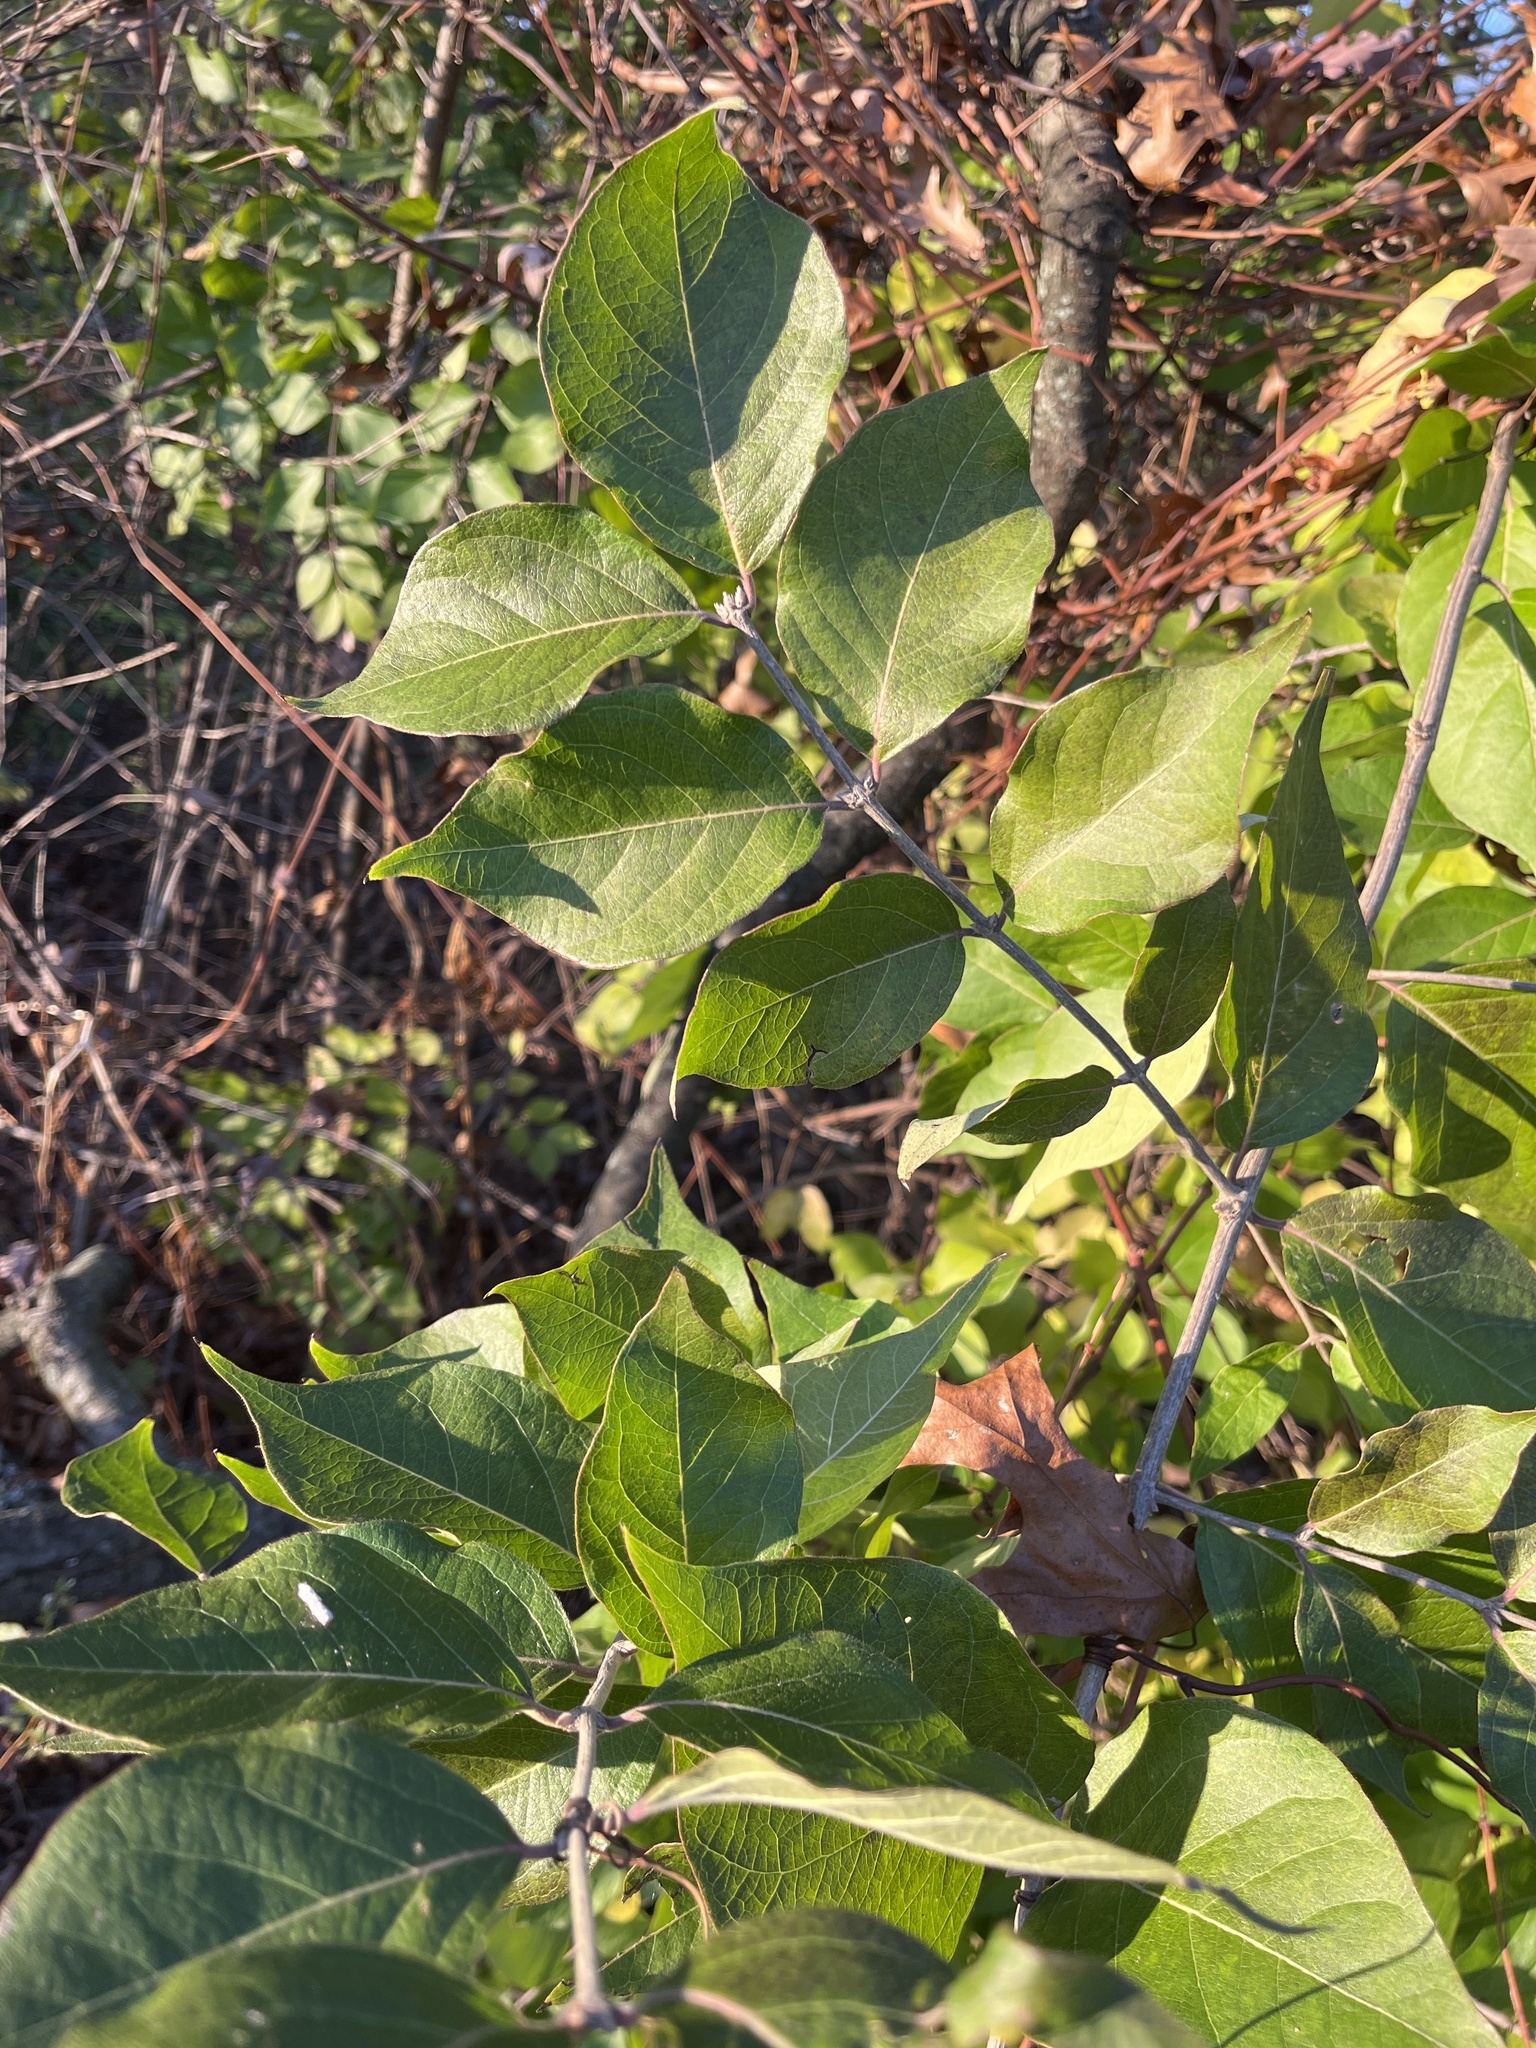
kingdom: Plantae
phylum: Tracheophyta
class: Magnoliopsida
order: Dipsacales
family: Caprifoliaceae
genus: Lonicera
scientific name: Lonicera maackii
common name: Amur honeysuckle
